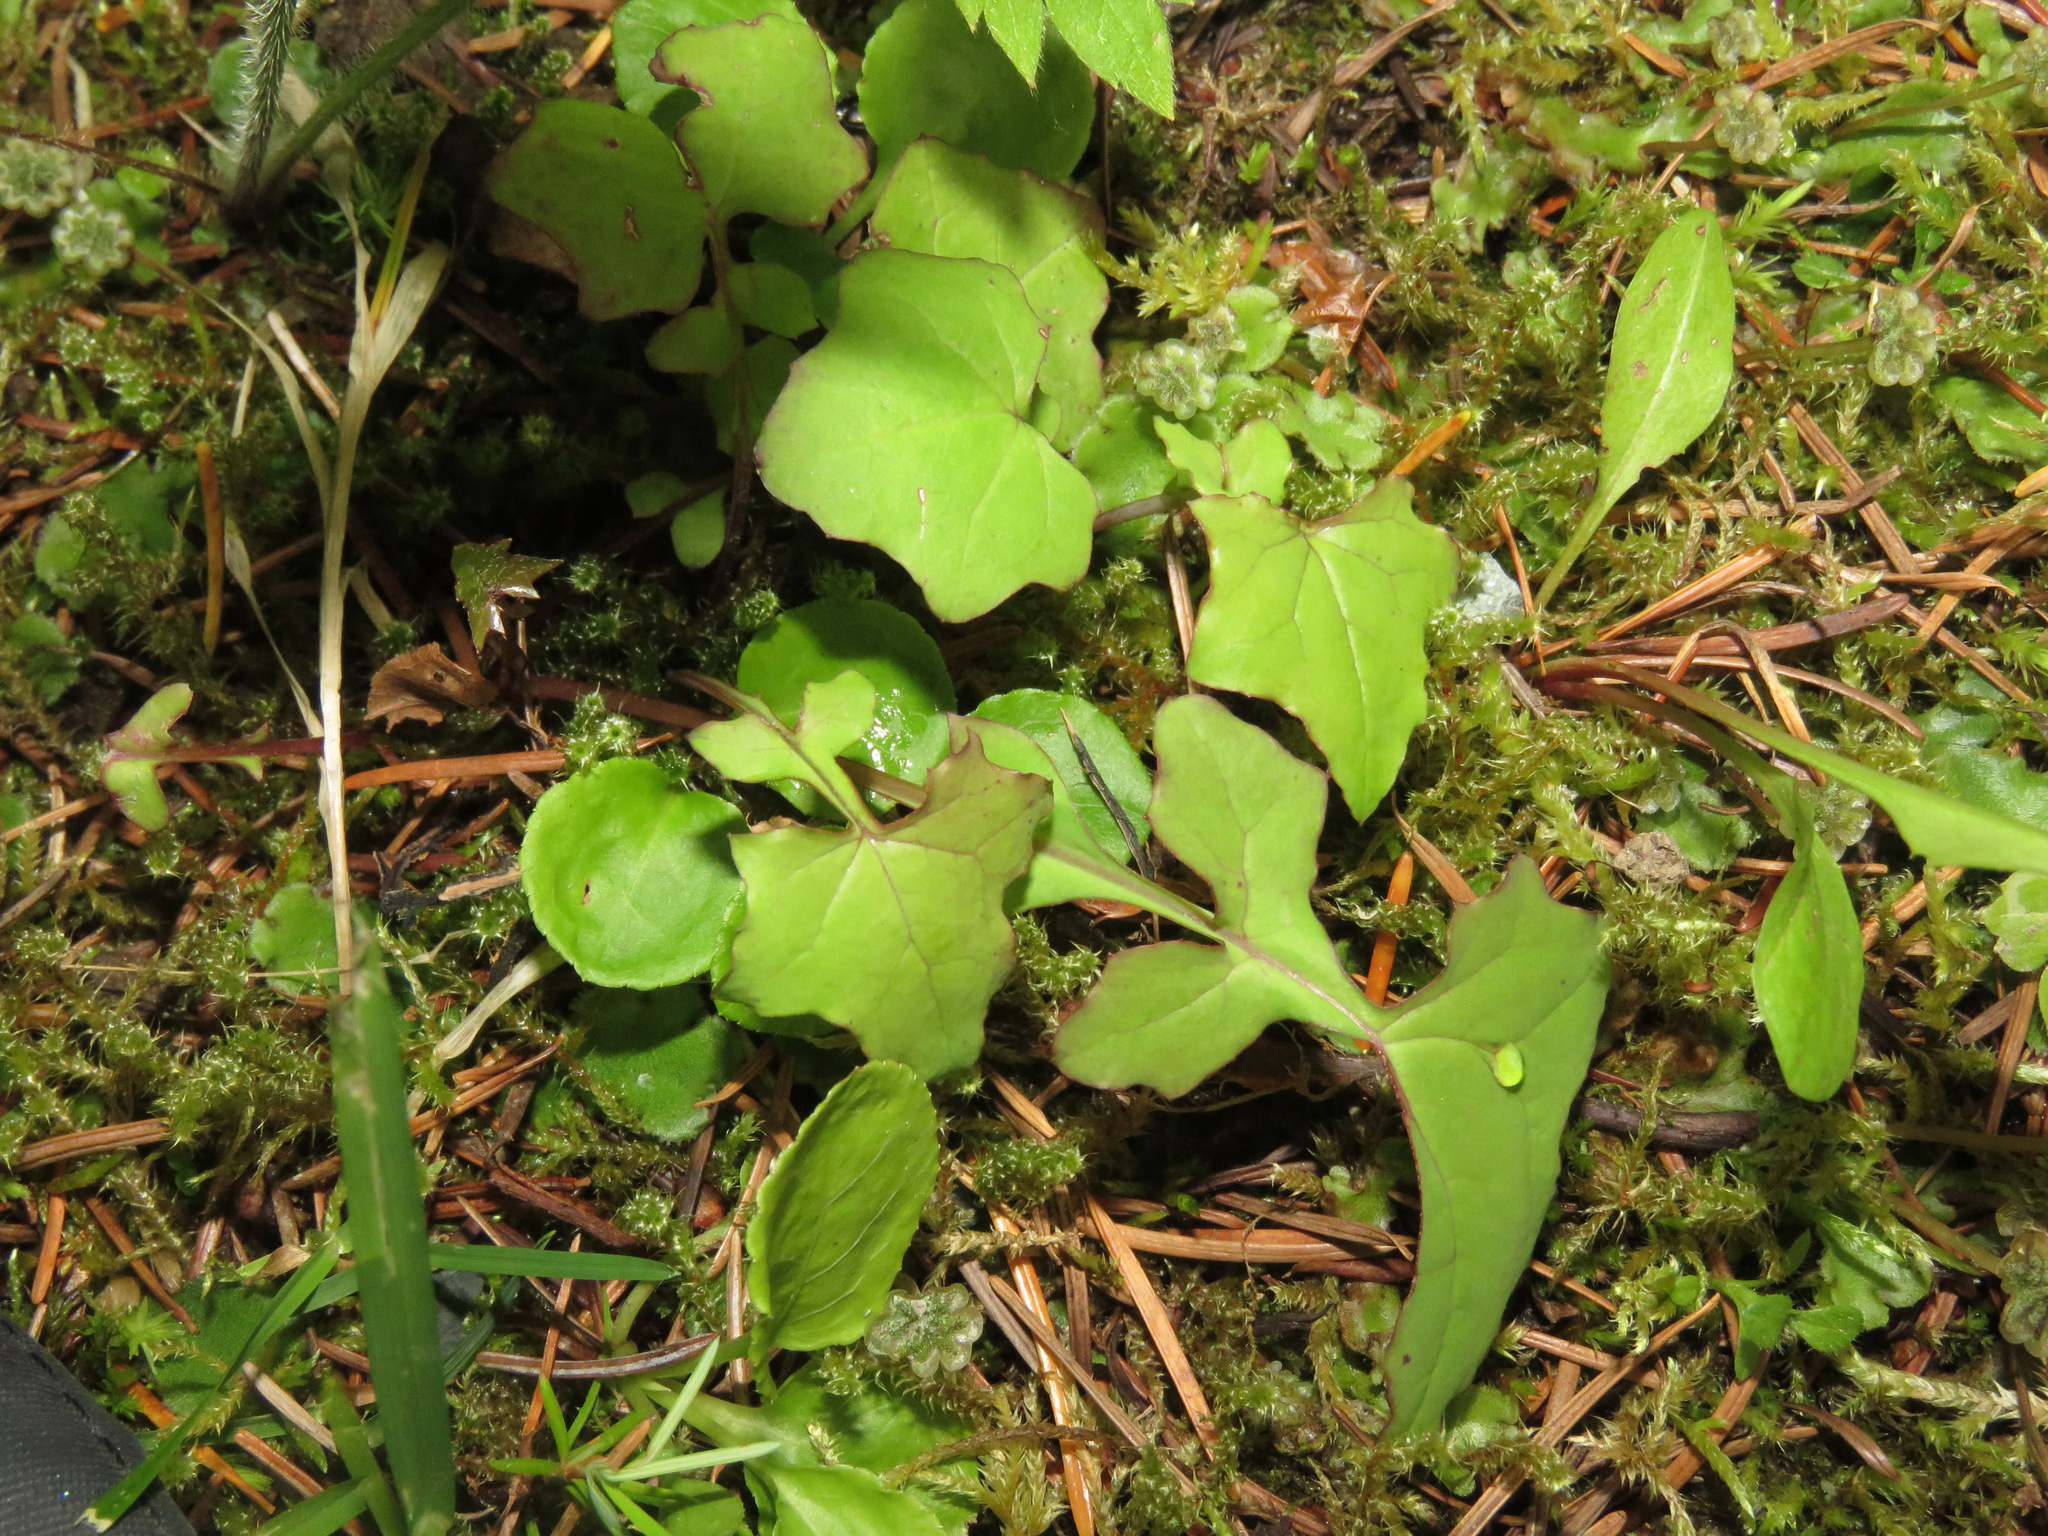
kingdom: Plantae
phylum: Tracheophyta
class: Magnoliopsida
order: Asterales
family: Asteraceae
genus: Mycelis
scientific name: Mycelis muralis
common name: Wall lettuce
